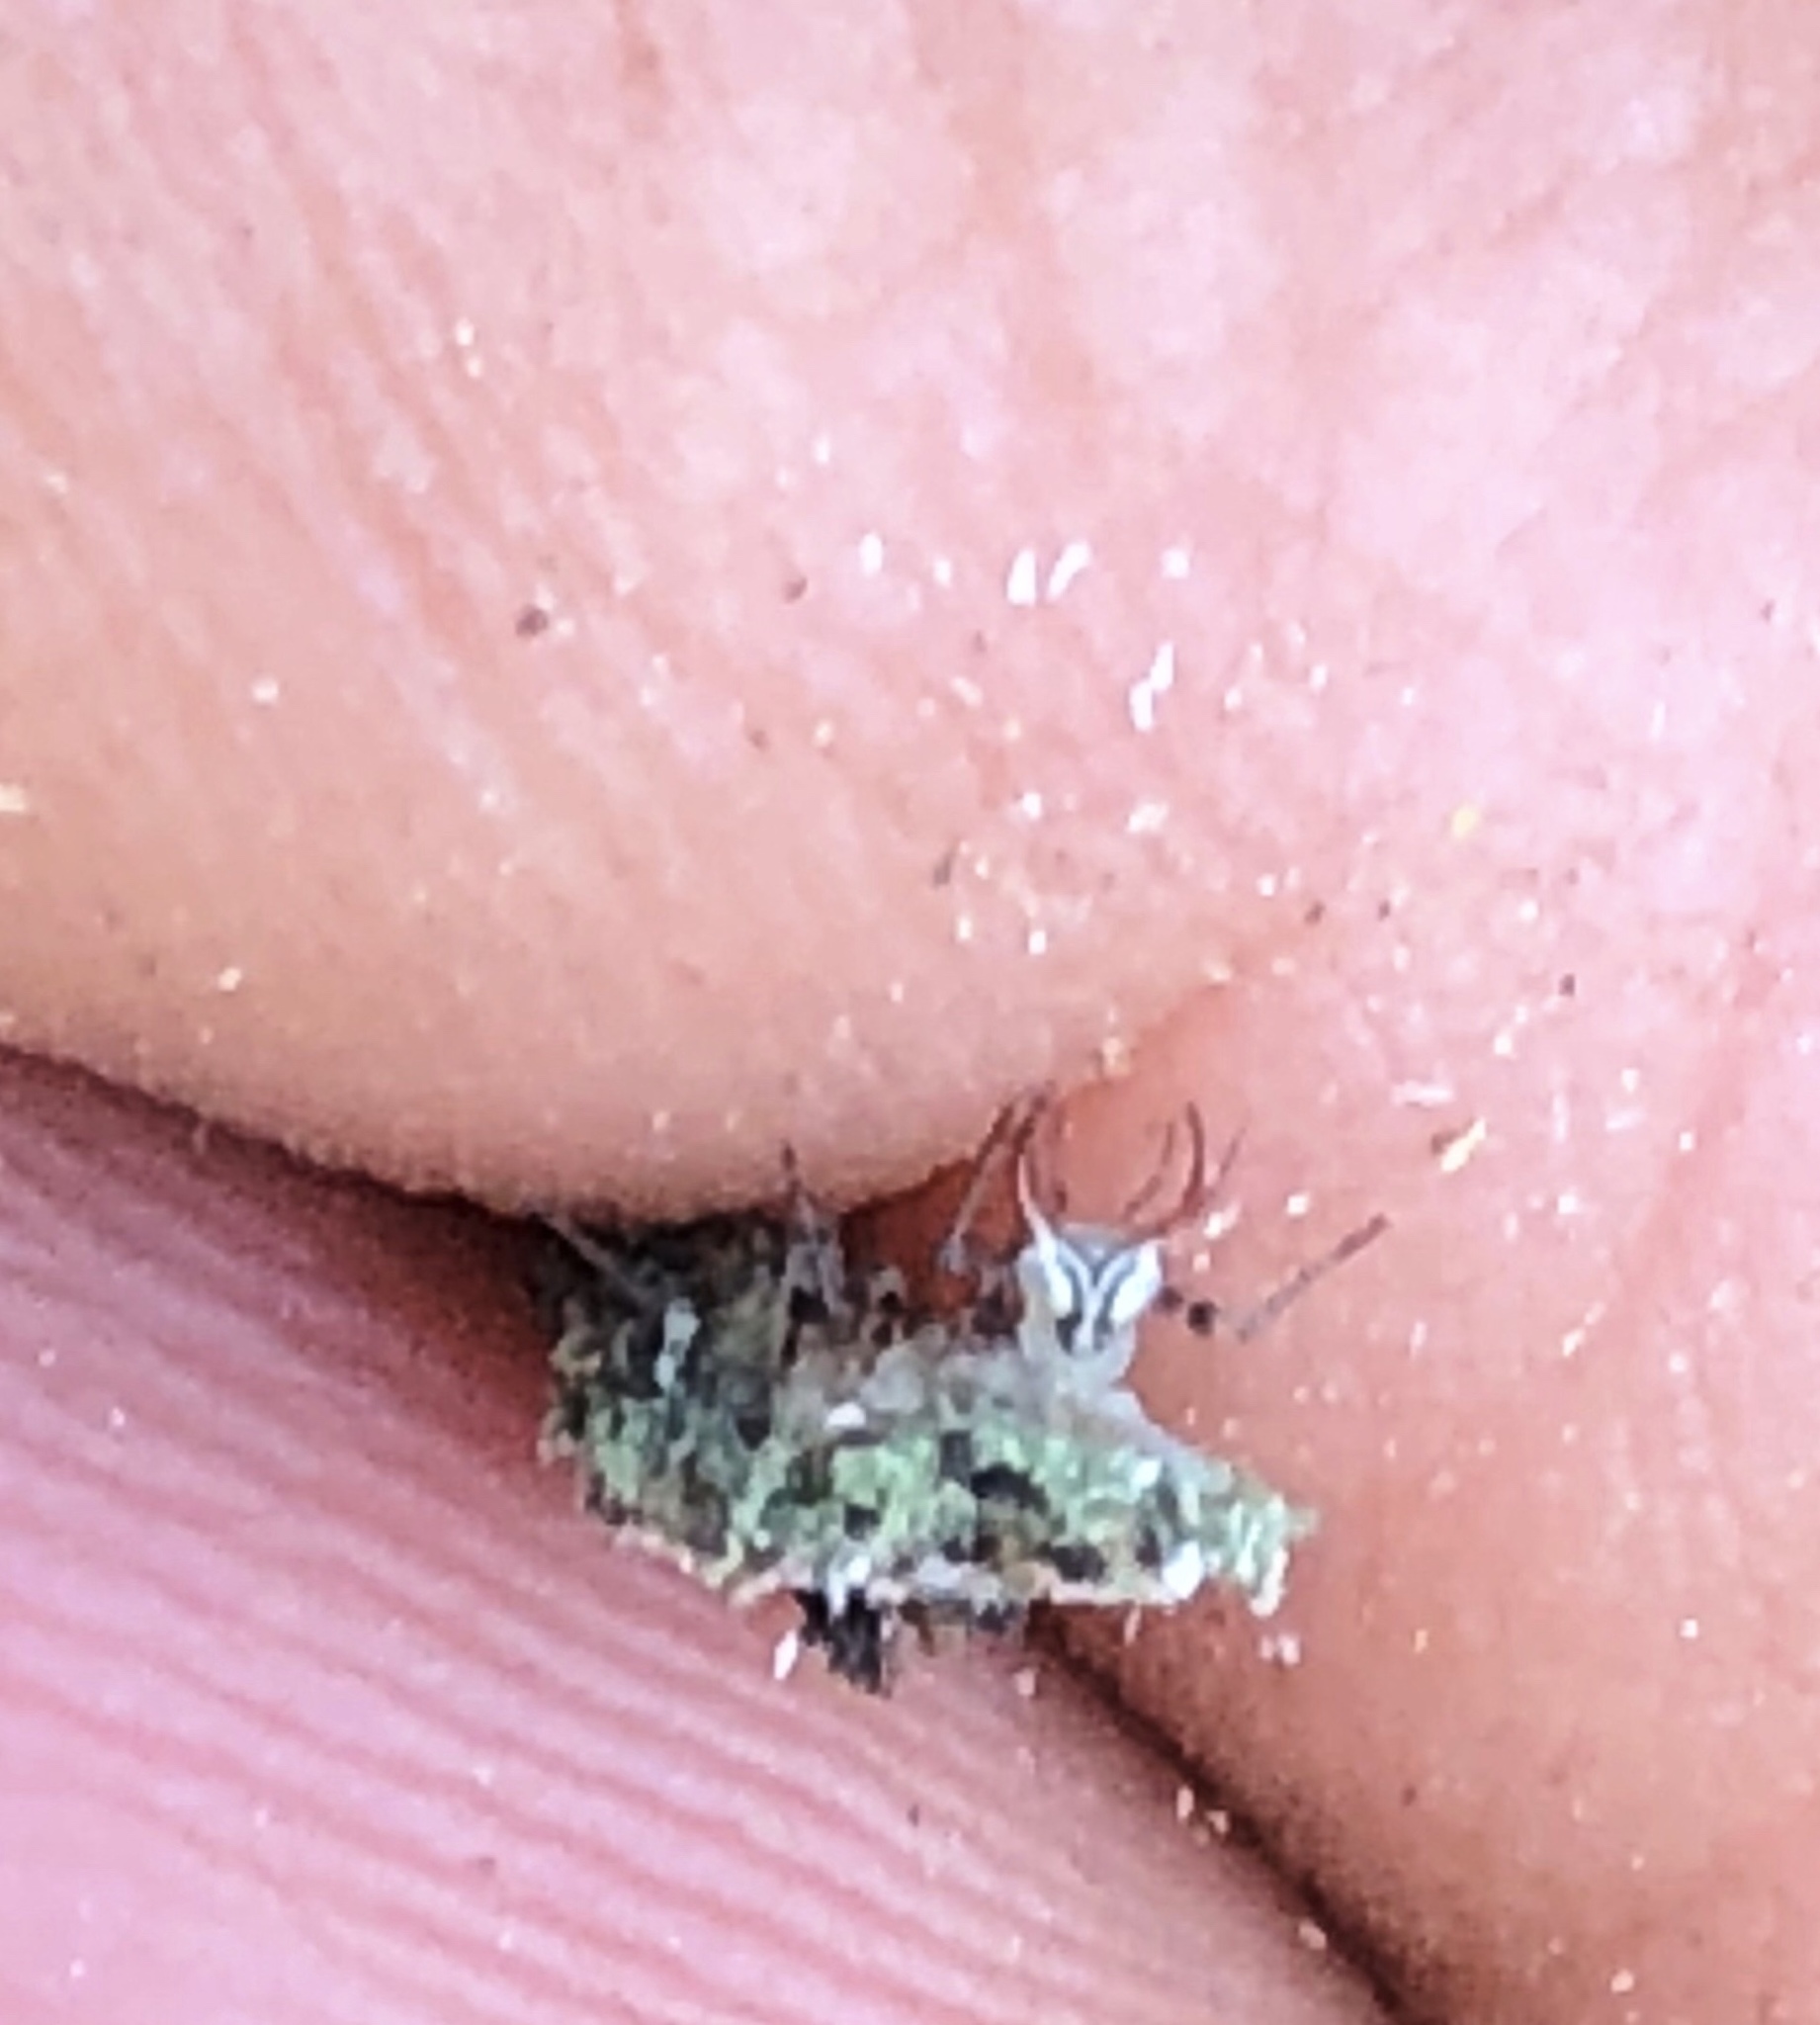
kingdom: Animalia
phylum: Arthropoda
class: Insecta
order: Neuroptera
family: Chrysopidae
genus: Leucochrysa
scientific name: Leucochrysa pavida
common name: Lichen-carrying green lacewing
